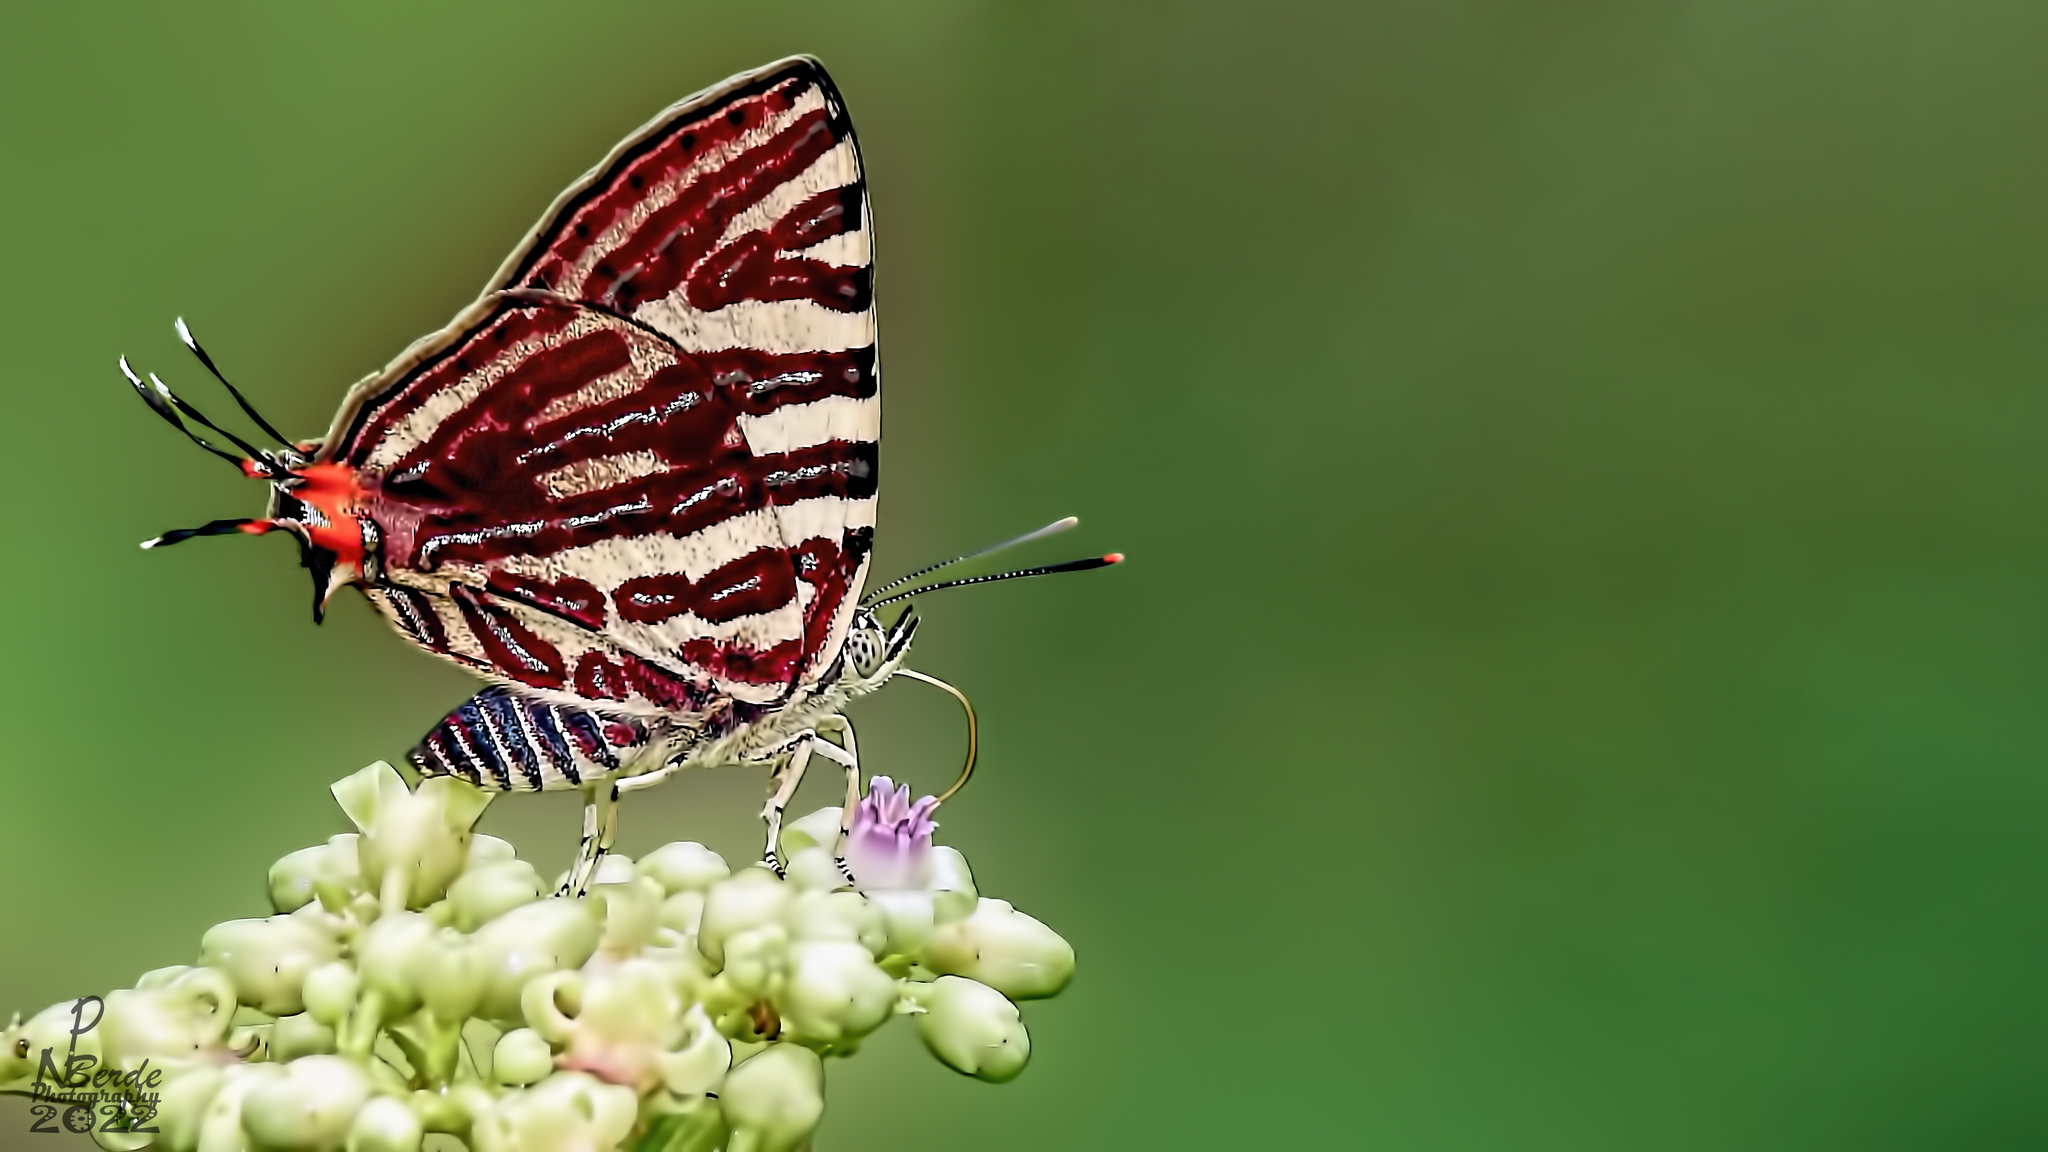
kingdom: Animalia
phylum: Arthropoda
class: Insecta
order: Lepidoptera
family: Lycaenidae
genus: Cigaritis
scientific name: Cigaritis lohita
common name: Long-banded silverline
